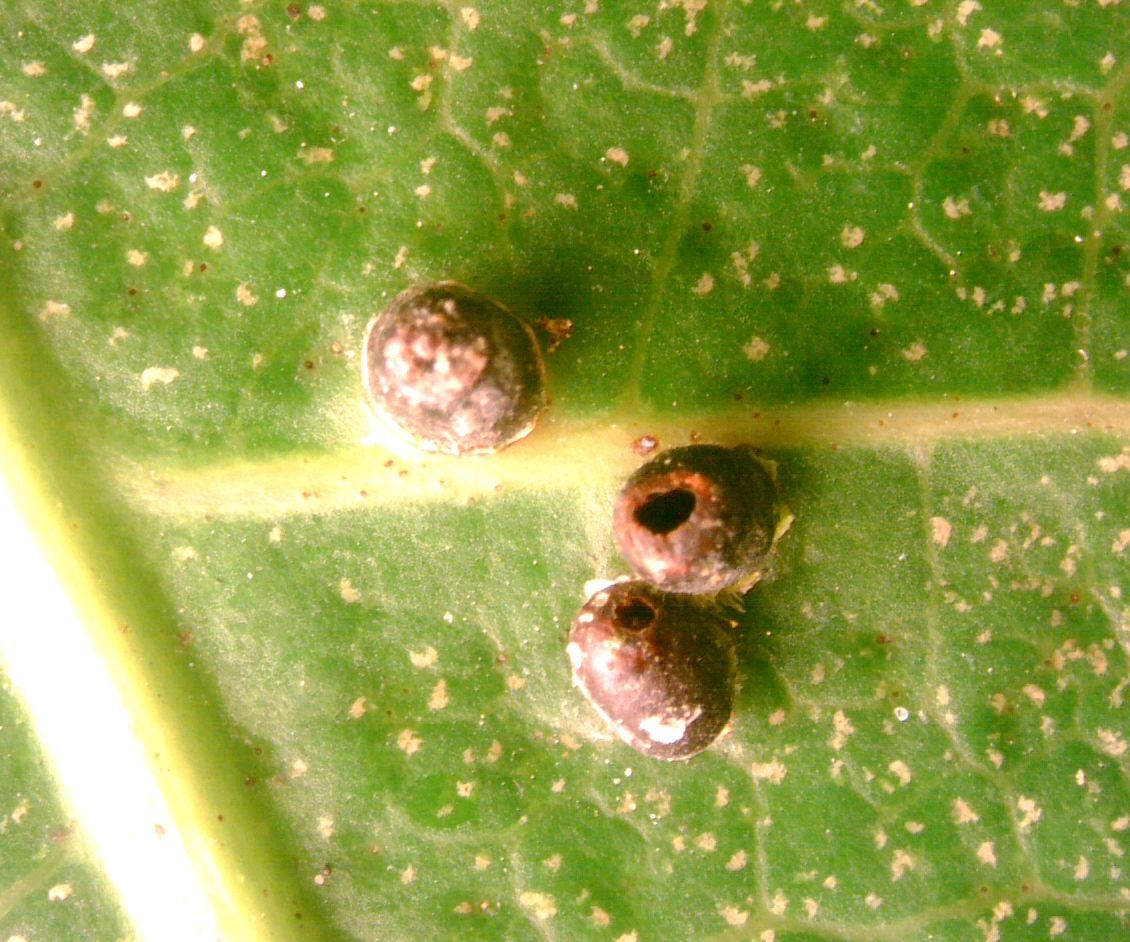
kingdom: Animalia
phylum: Arthropoda
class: Insecta
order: Diptera
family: Cecidomyiidae
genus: Procontarinia
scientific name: Procontarinia robusta
